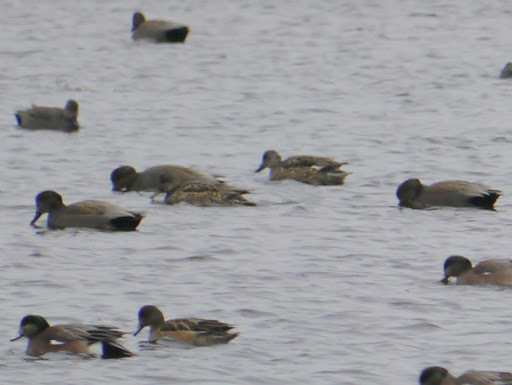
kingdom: Animalia
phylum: Chordata
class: Aves
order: Anseriformes
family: Anatidae
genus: Mareca
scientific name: Mareca strepera
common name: Gadwall
